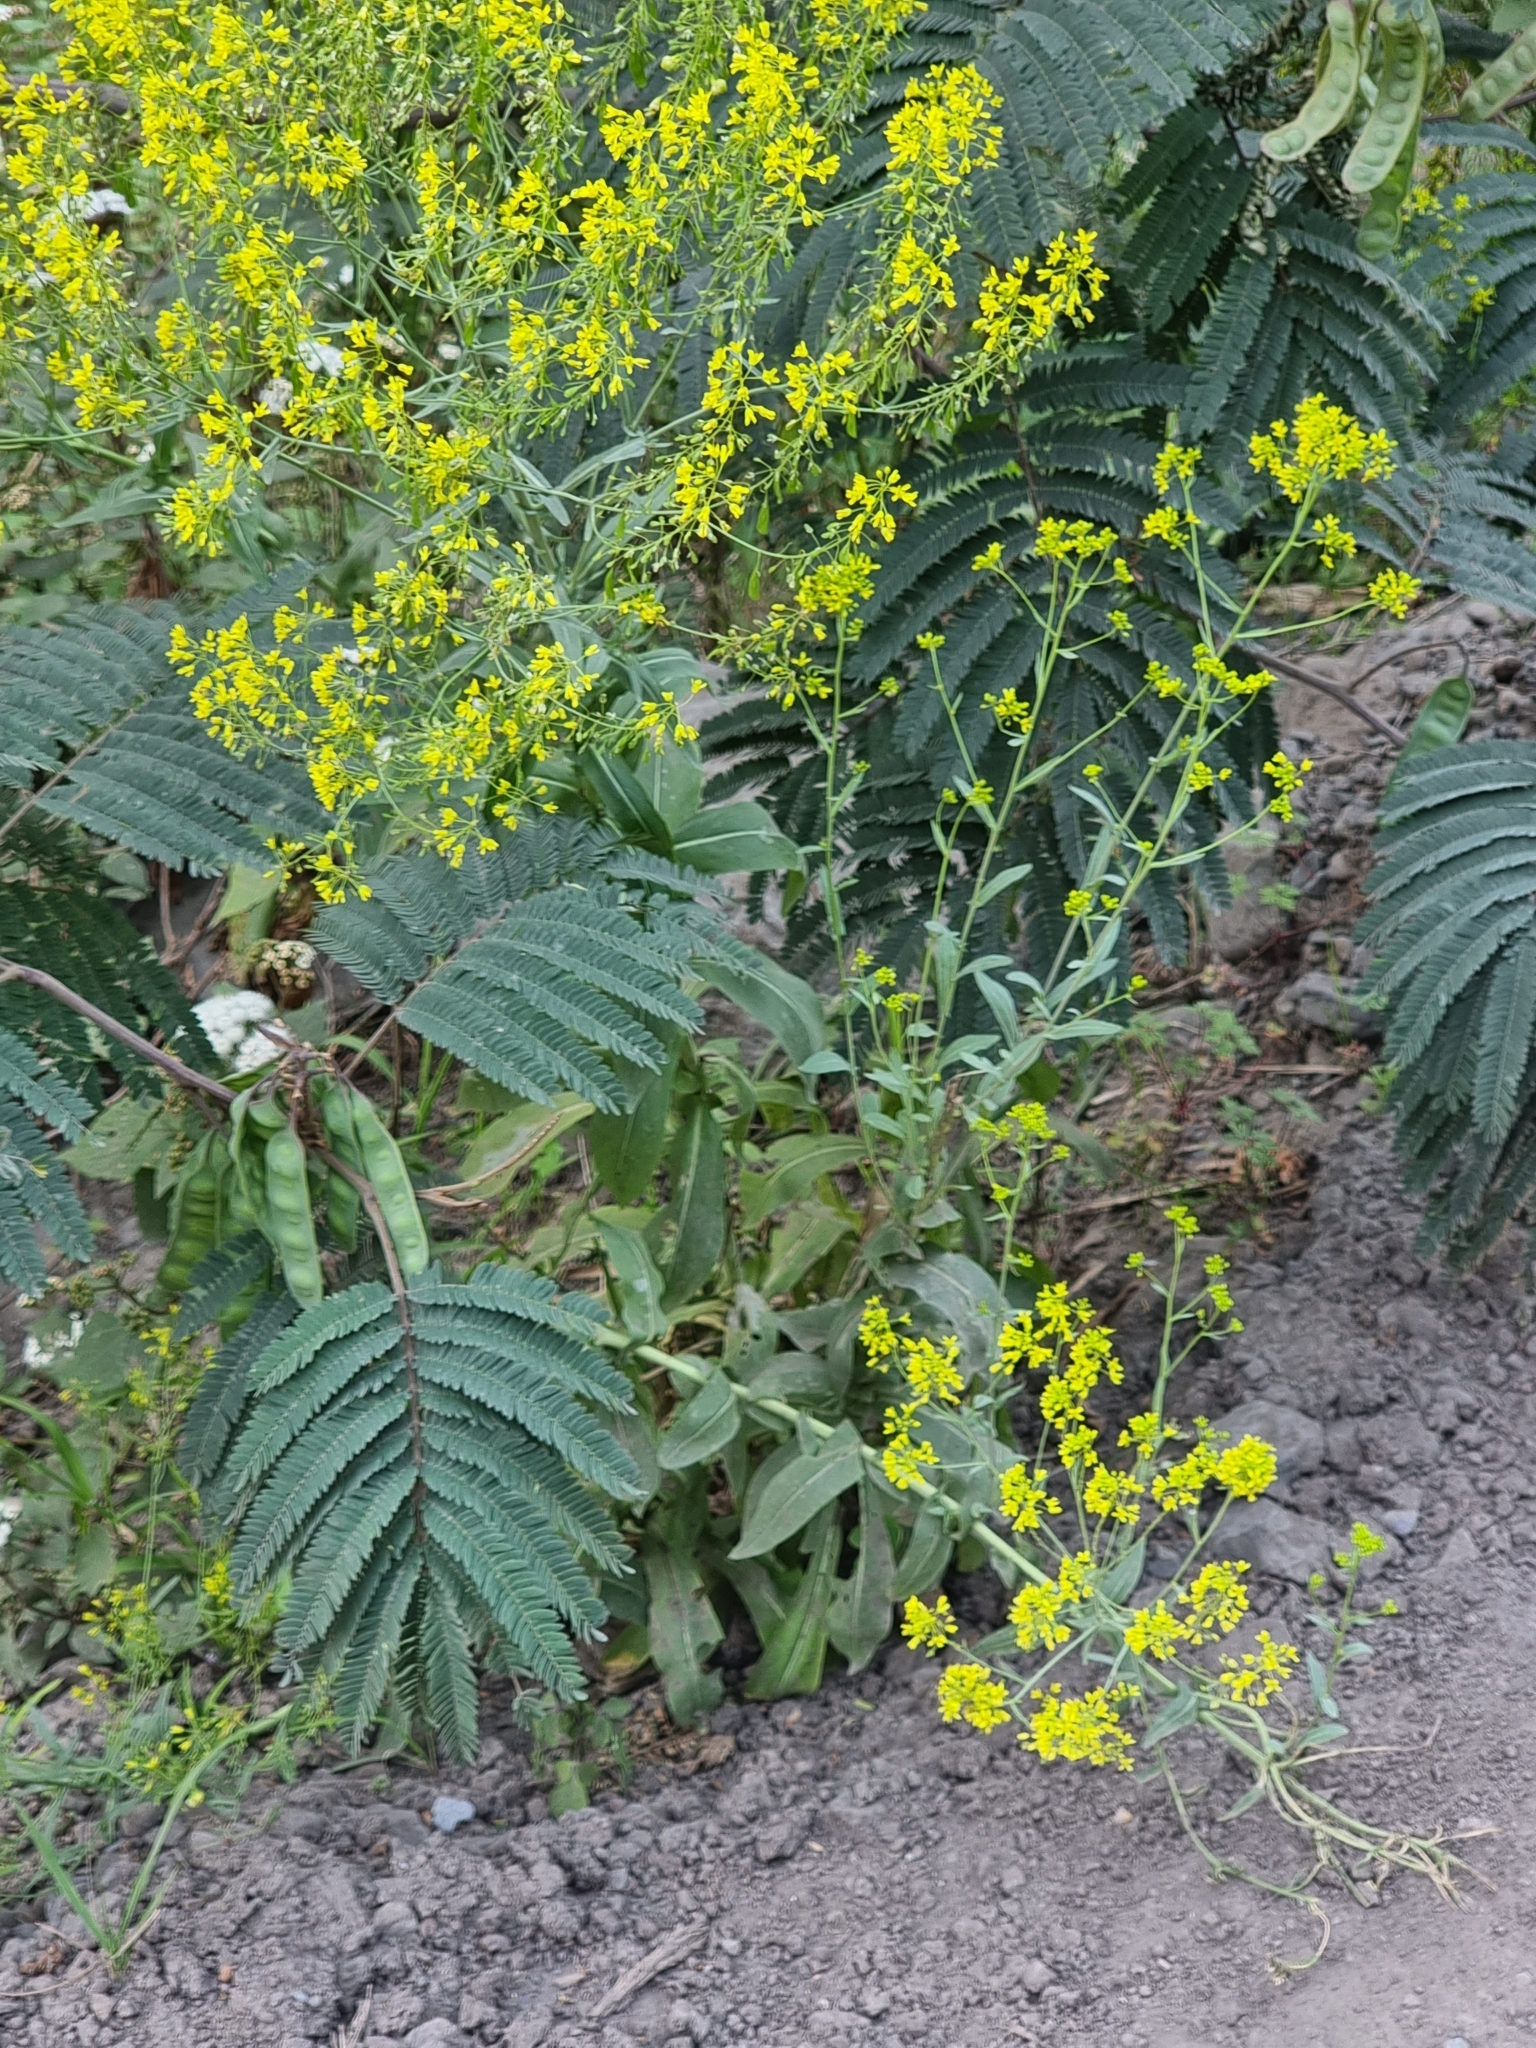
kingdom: Plantae
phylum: Tracheophyta
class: Magnoliopsida
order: Brassicales
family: Brassicaceae
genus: Isatis
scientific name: Isatis tinctoria
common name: Woad
